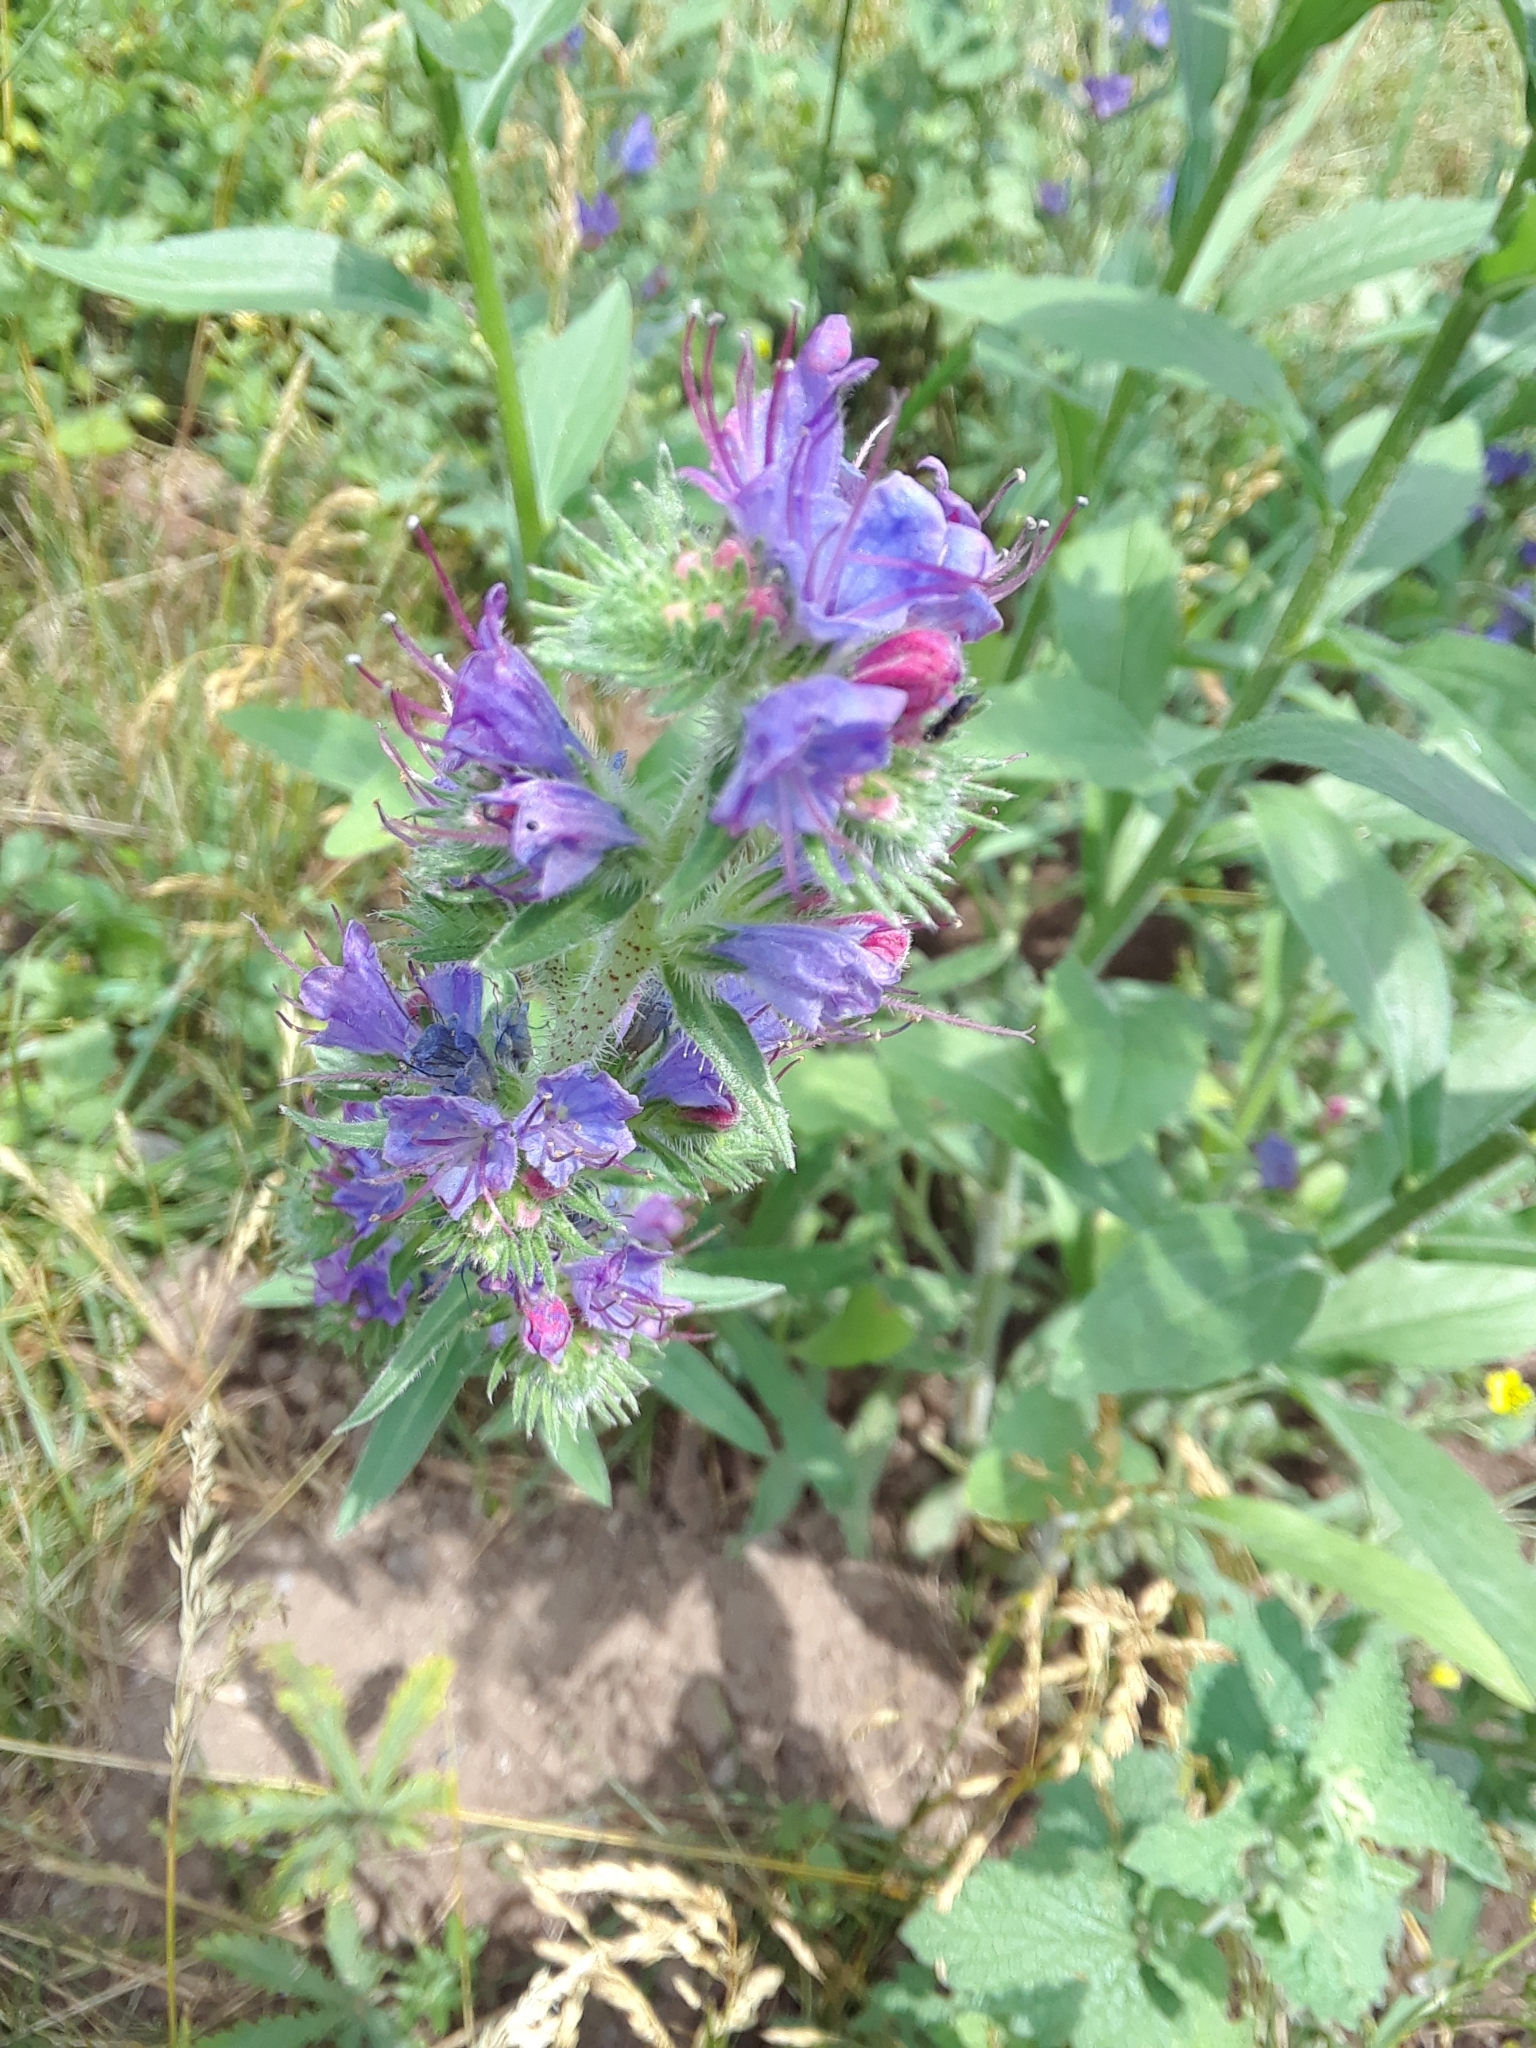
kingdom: Plantae
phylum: Tracheophyta
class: Magnoliopsida
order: Boraginales
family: Boraginaceae
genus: Echium
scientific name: Echium vulgare
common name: Common viper's bugloss
